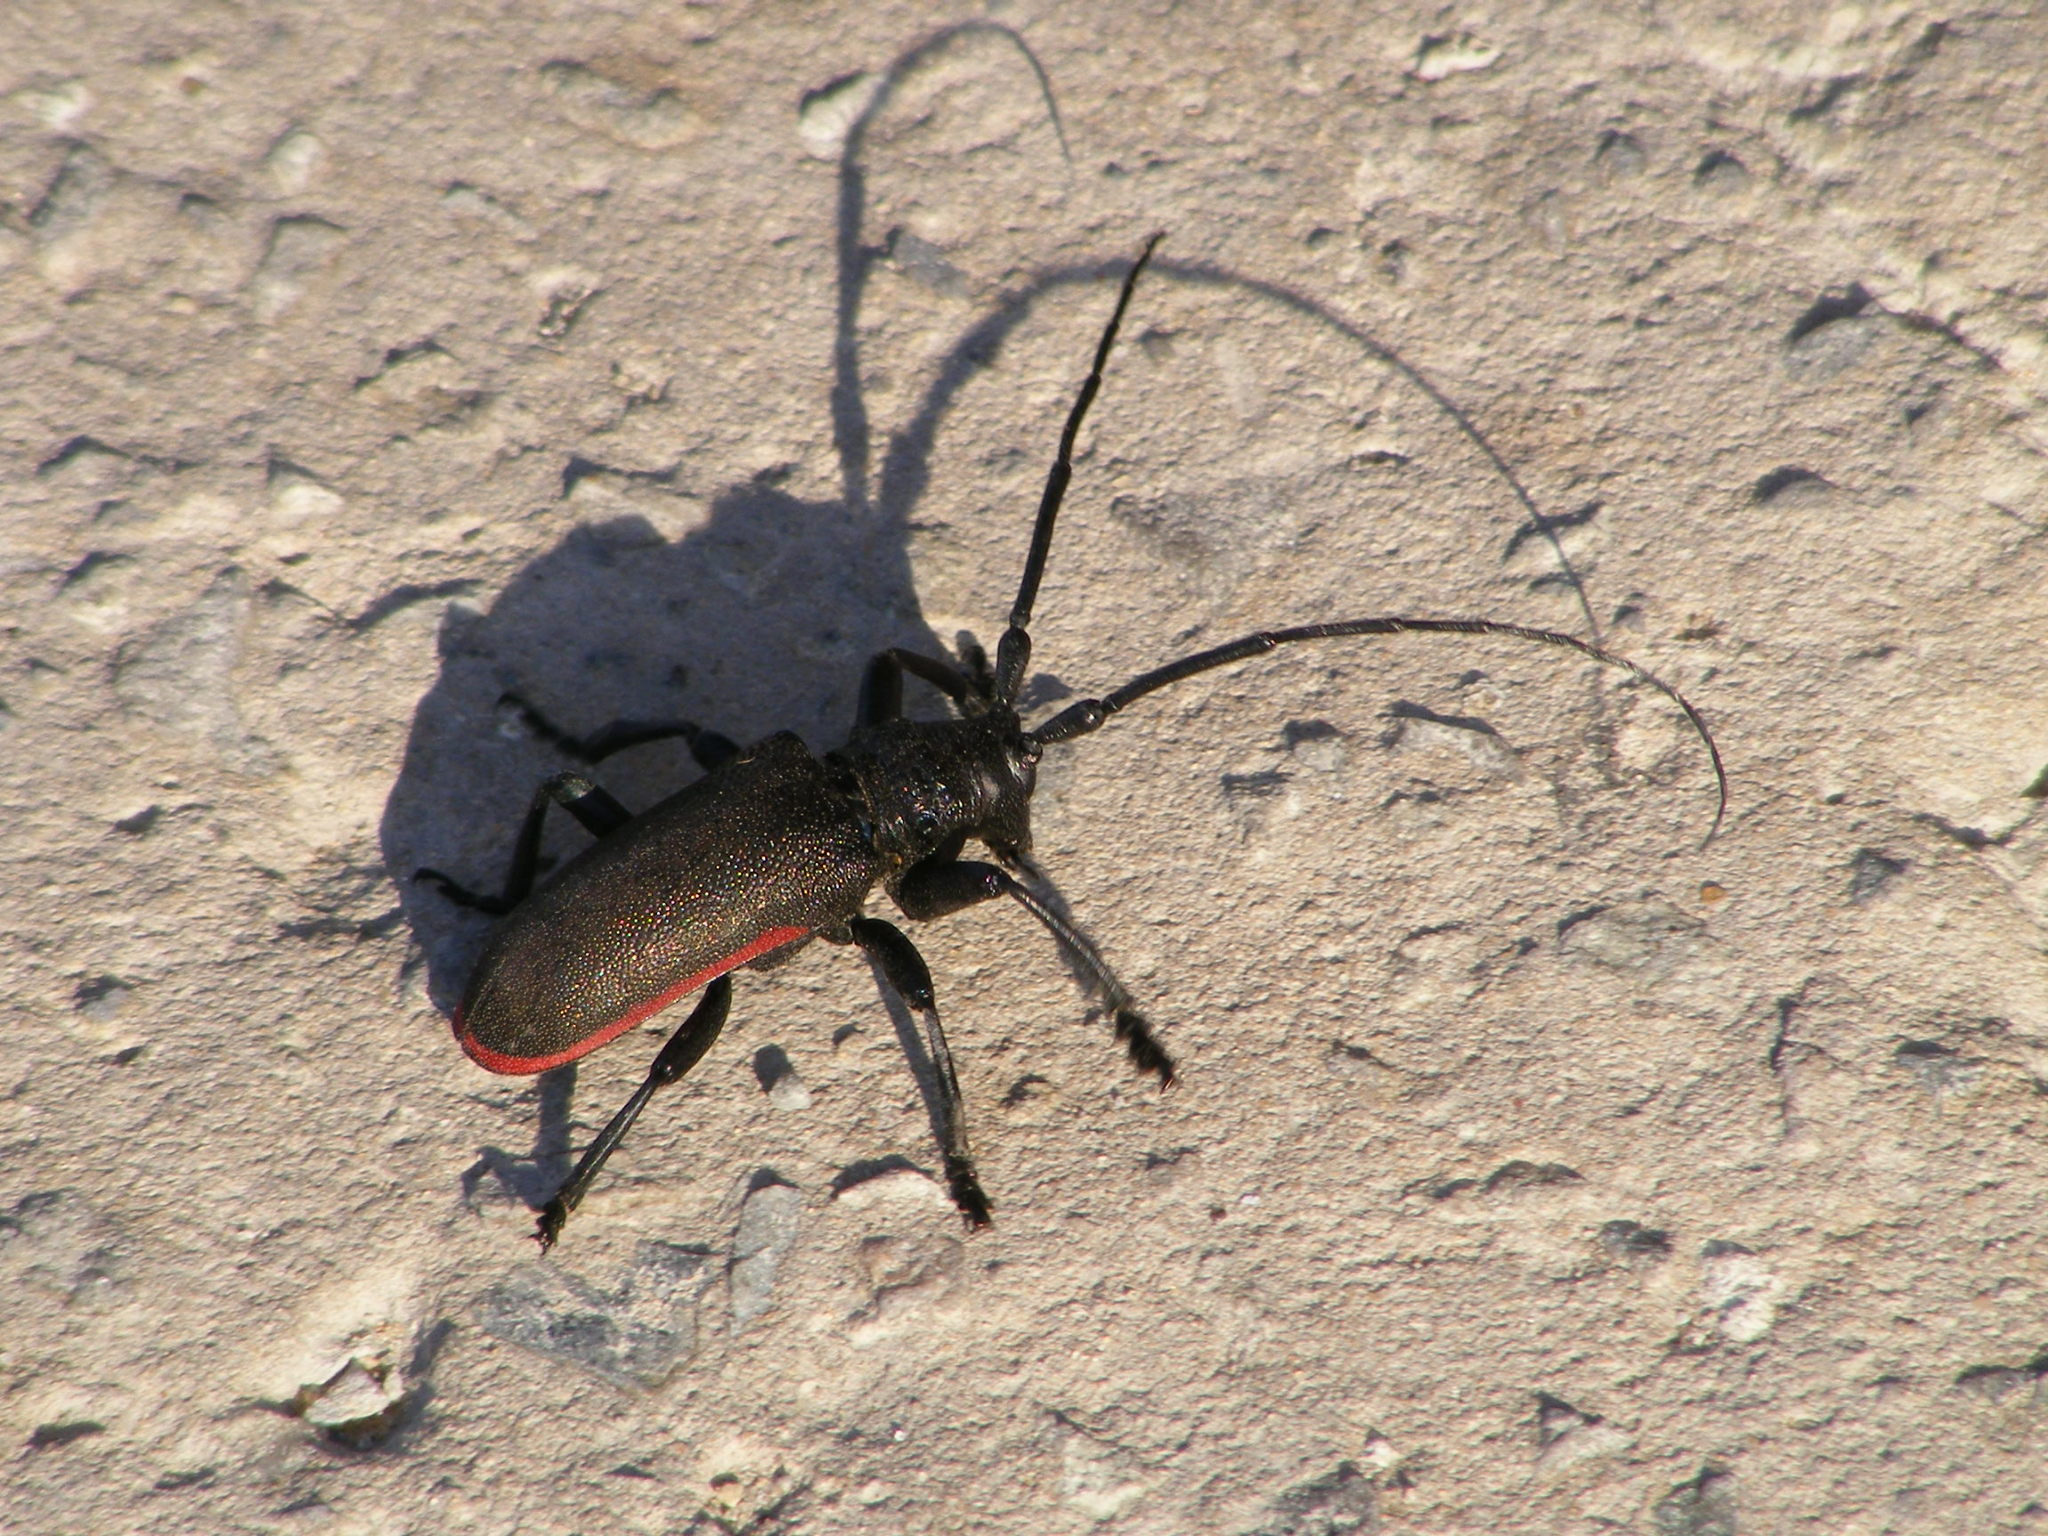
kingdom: Animalia
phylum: Arthropoda
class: Insecta
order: Coleoptera
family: Cerambycidae
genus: Ceroplesis
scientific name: Ceroplesis ferrugator
